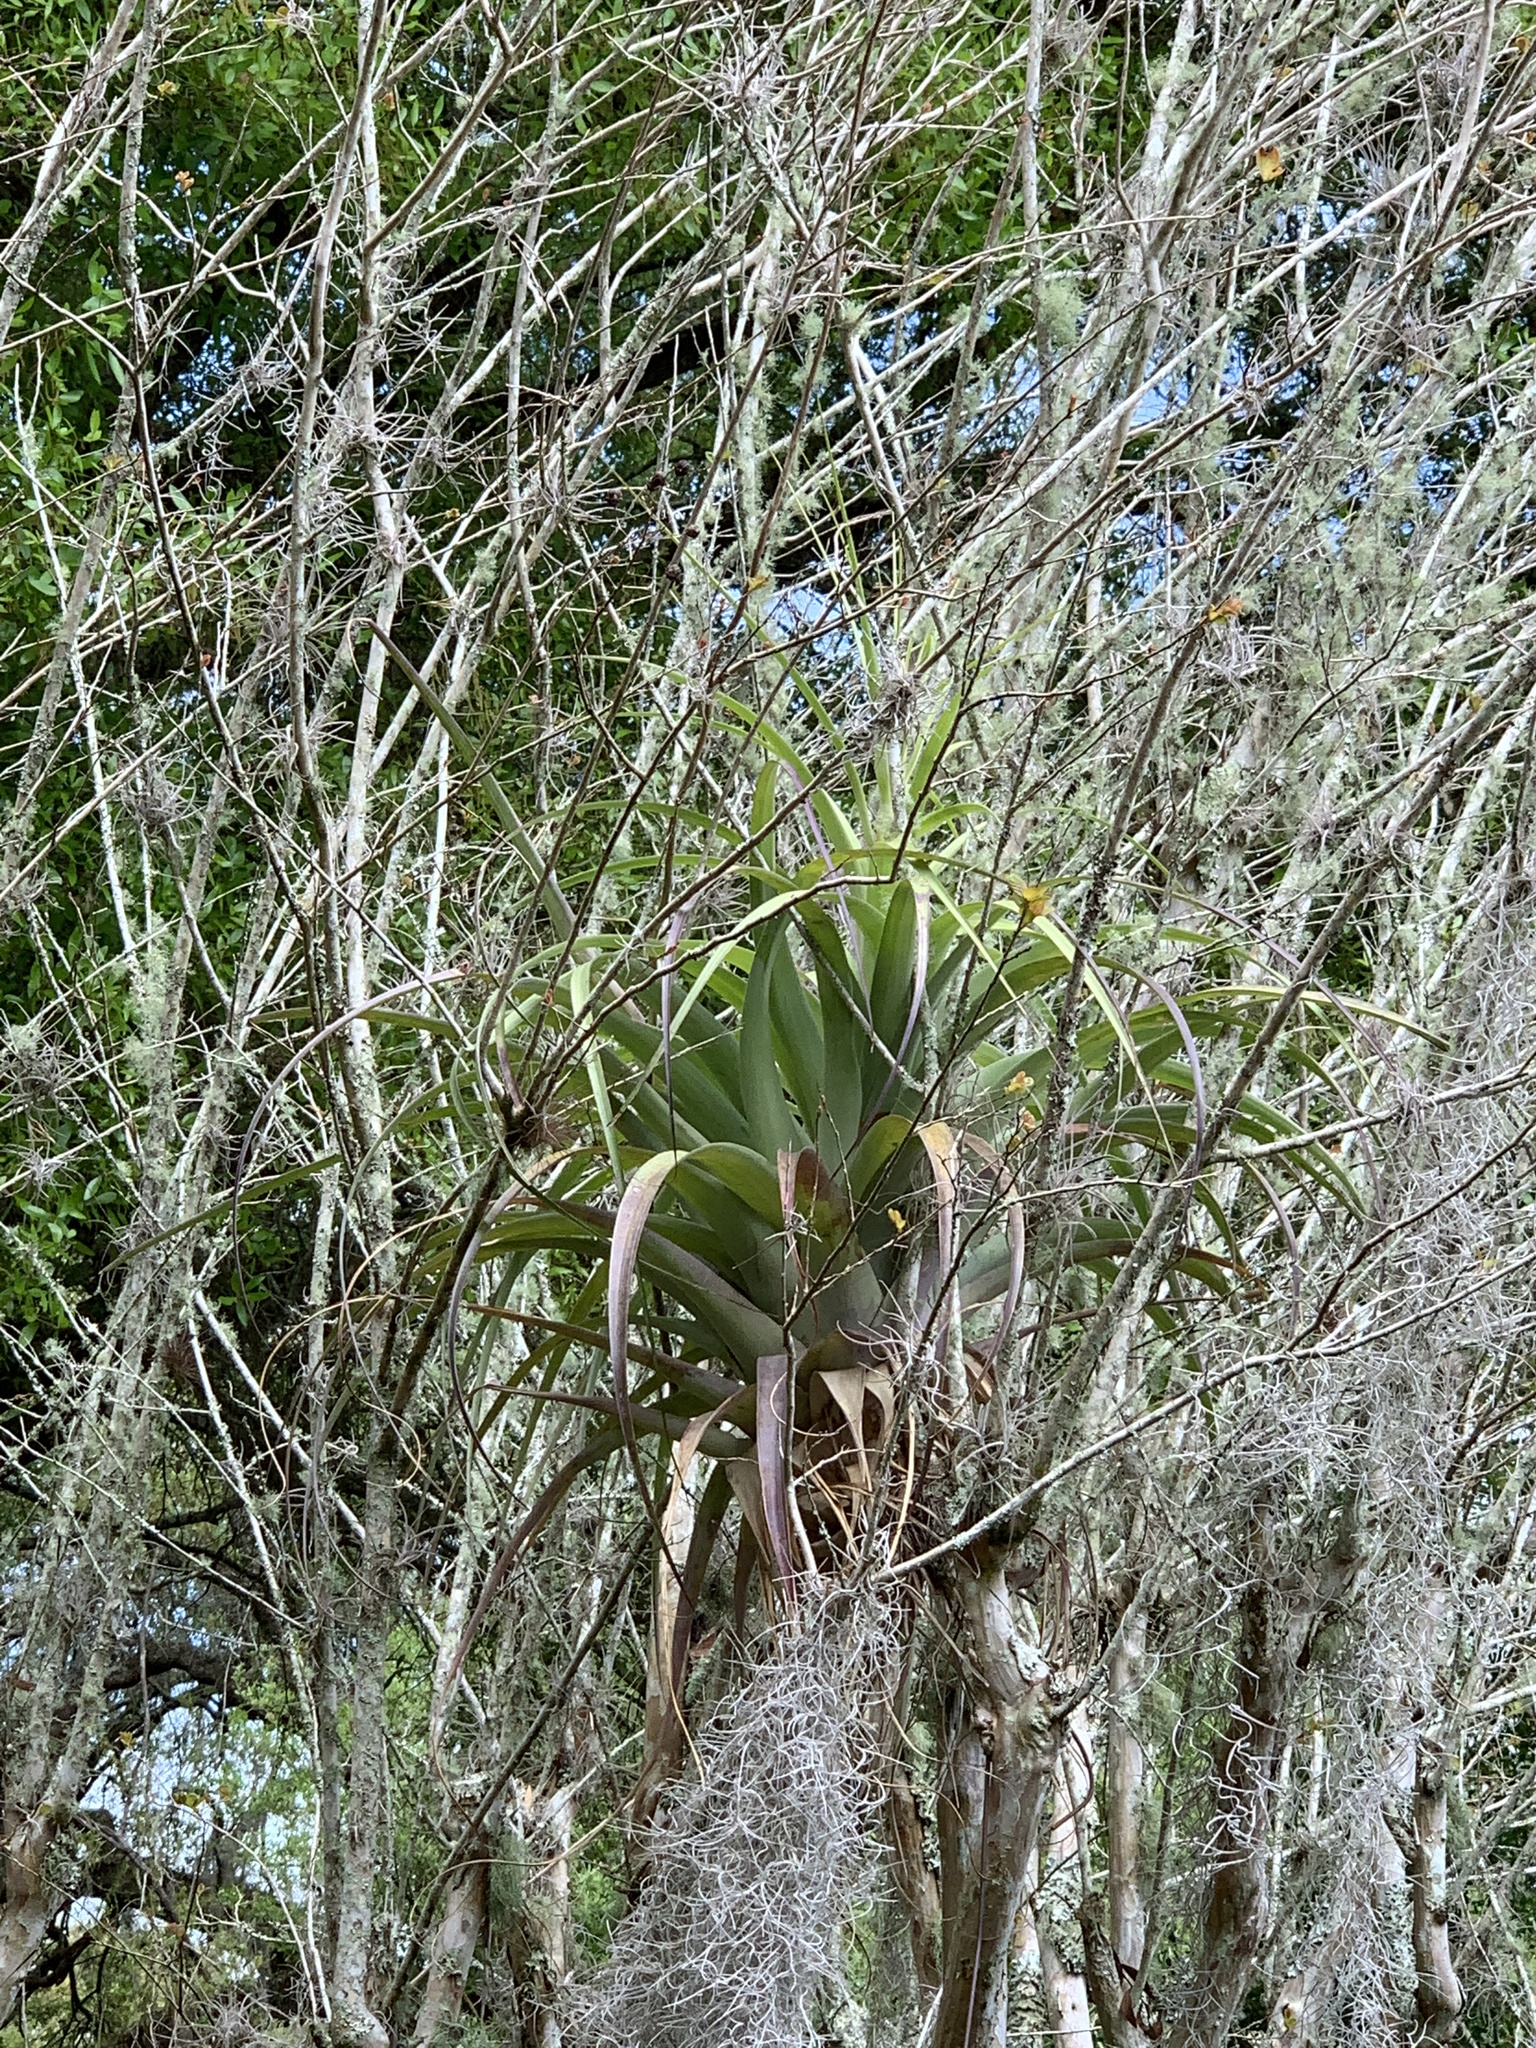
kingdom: Plantae
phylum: Tracheophyta
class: Liliopsida
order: Poales
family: Bromeliaceae
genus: Tillandsia
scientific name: Tillandsia utriculata
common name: Wild pine
